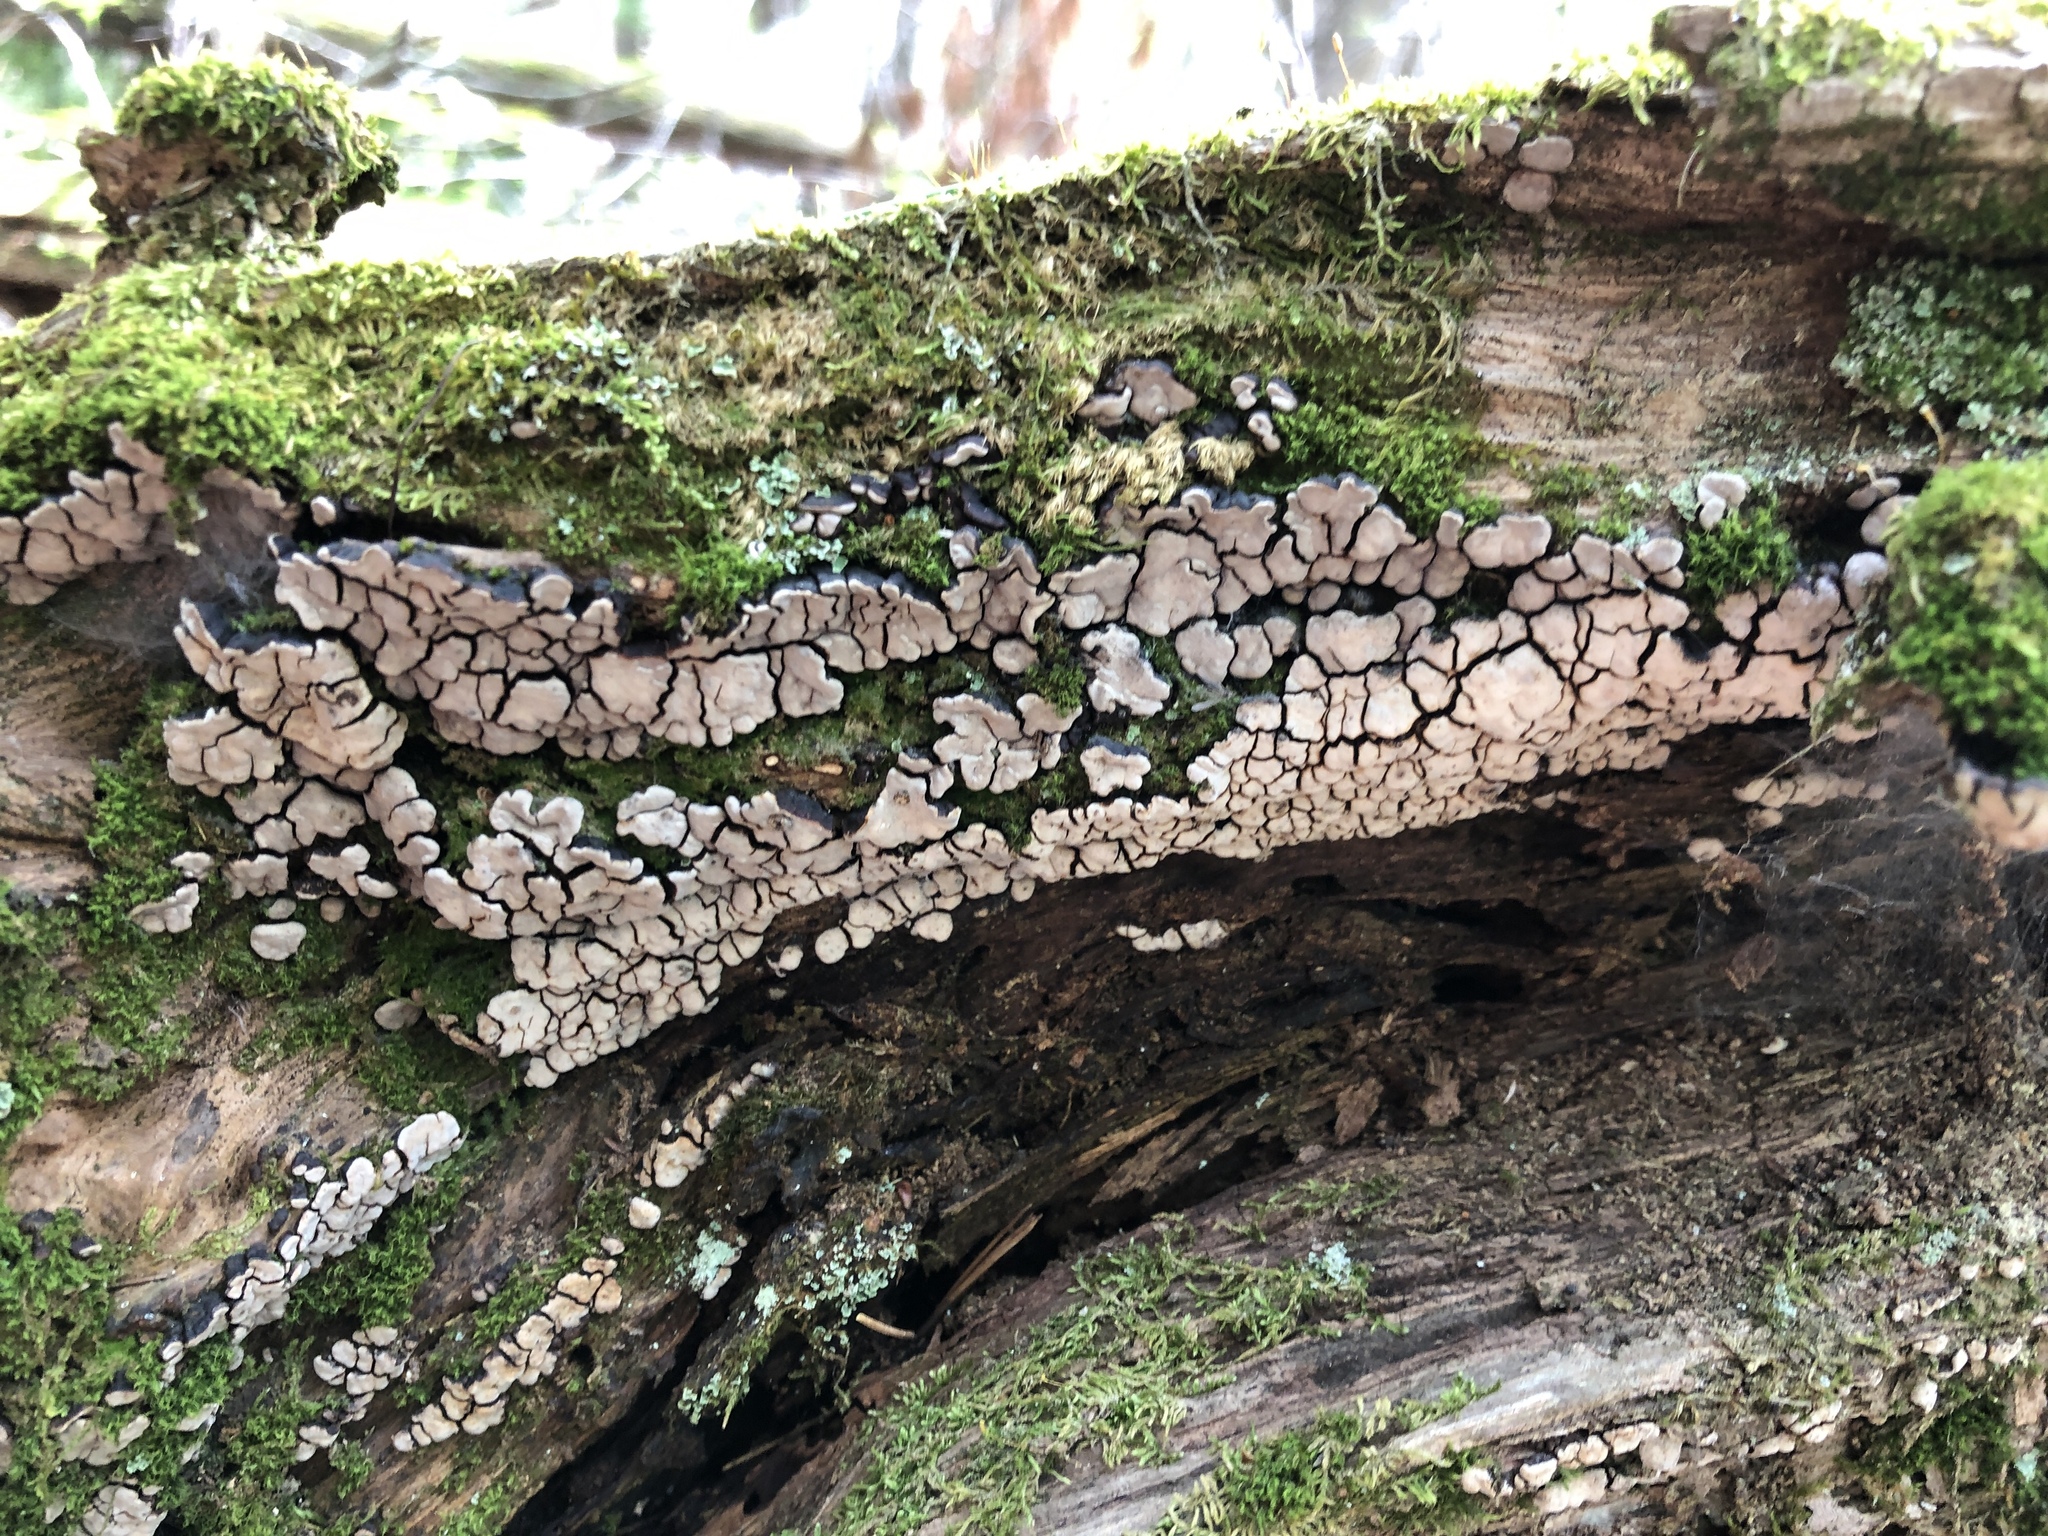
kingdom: Fungi
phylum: Basidiomycota
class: Agaricomycetes
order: Russulales
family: Stereaceae
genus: Xylobolus
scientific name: Xylobolus frustulatus
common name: Ceramic parchment
